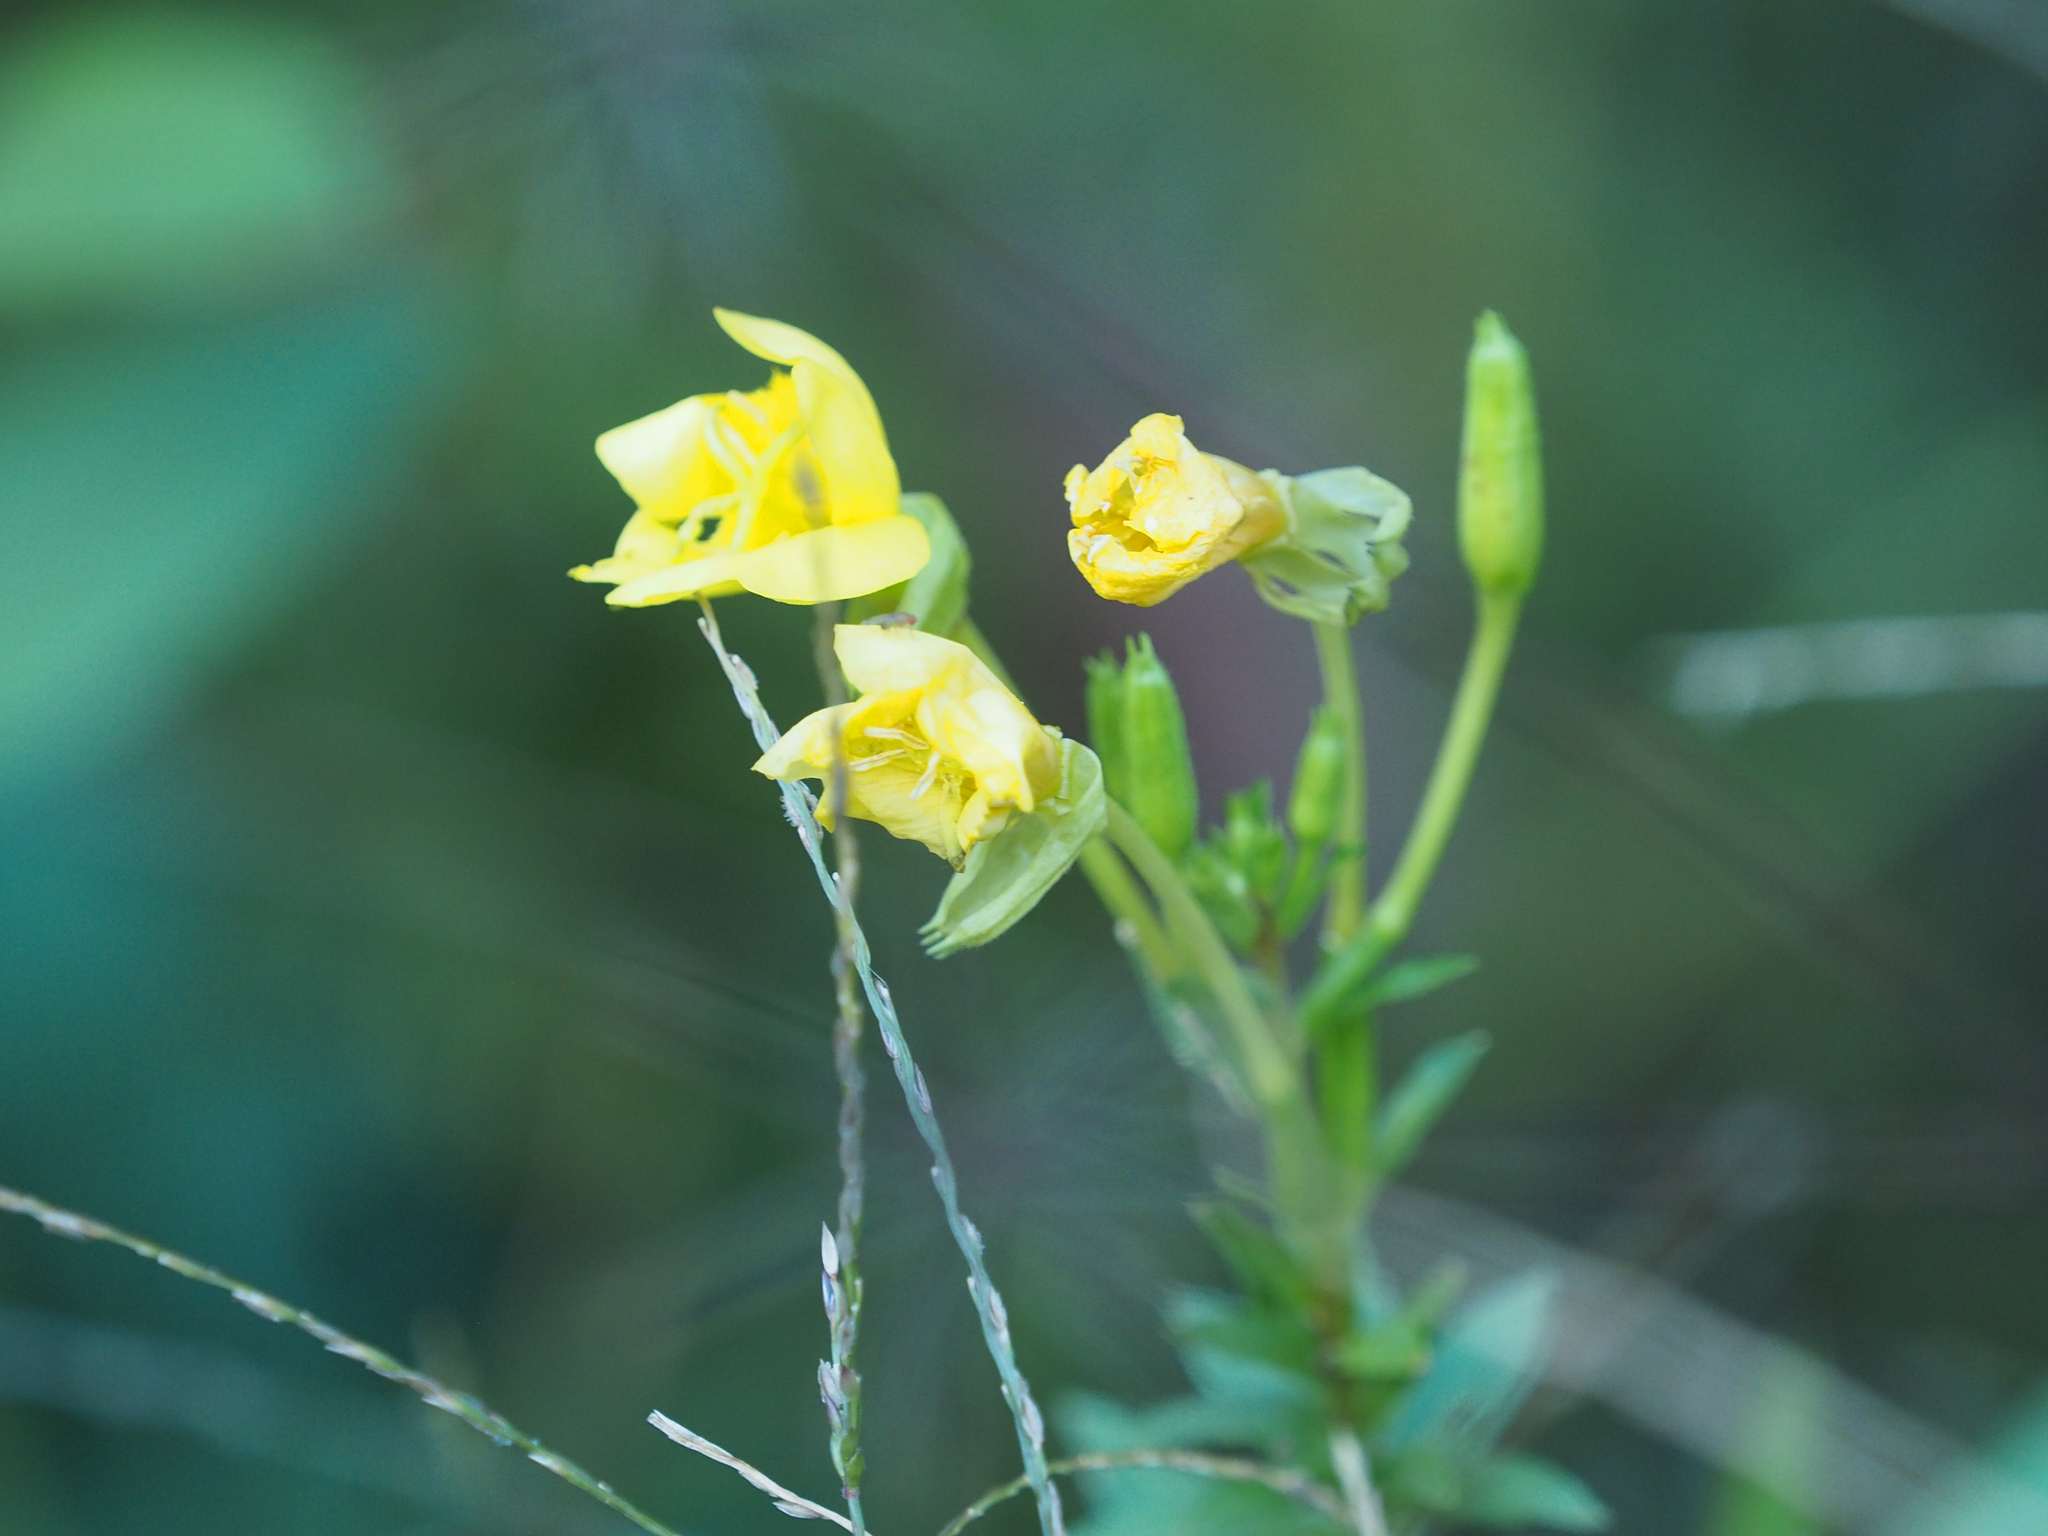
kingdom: Plantae
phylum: Tracheophyta
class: Magnoliopsida
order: Myrtales
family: Onagraceae
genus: Oenothera
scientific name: Oenothera biennis
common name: Common evening-primrose
